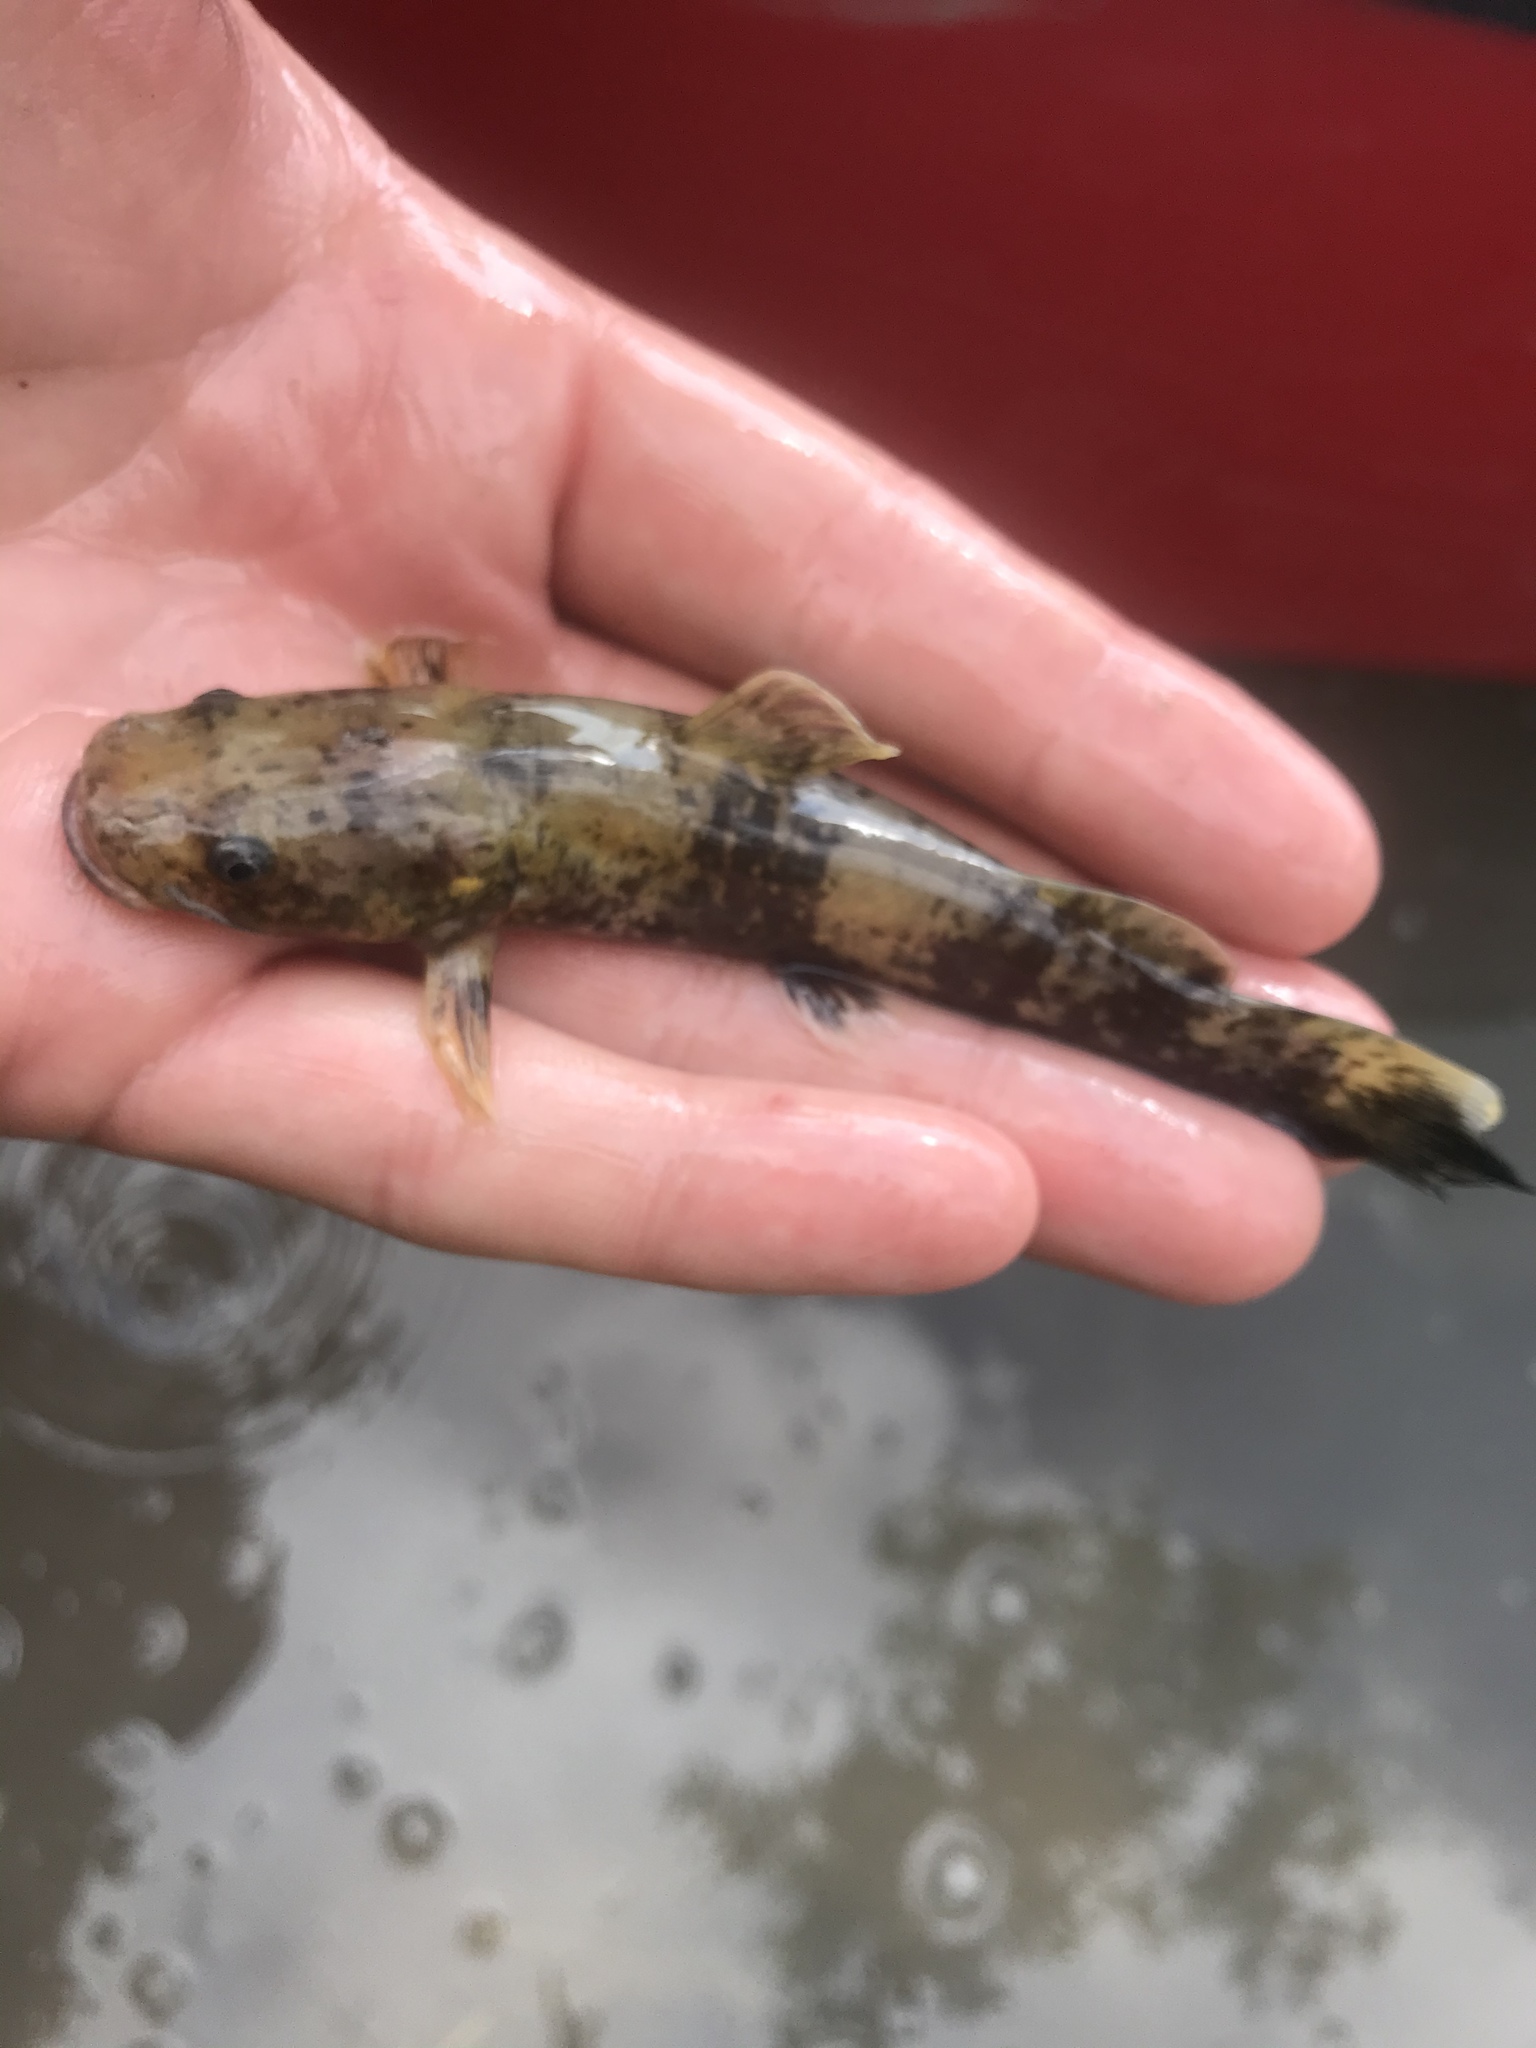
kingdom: Animalia
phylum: Chordata
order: Siluriformes
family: Ictaluridae
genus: Pylodictis
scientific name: Pylodictis olivaris
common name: Flathead catfish
